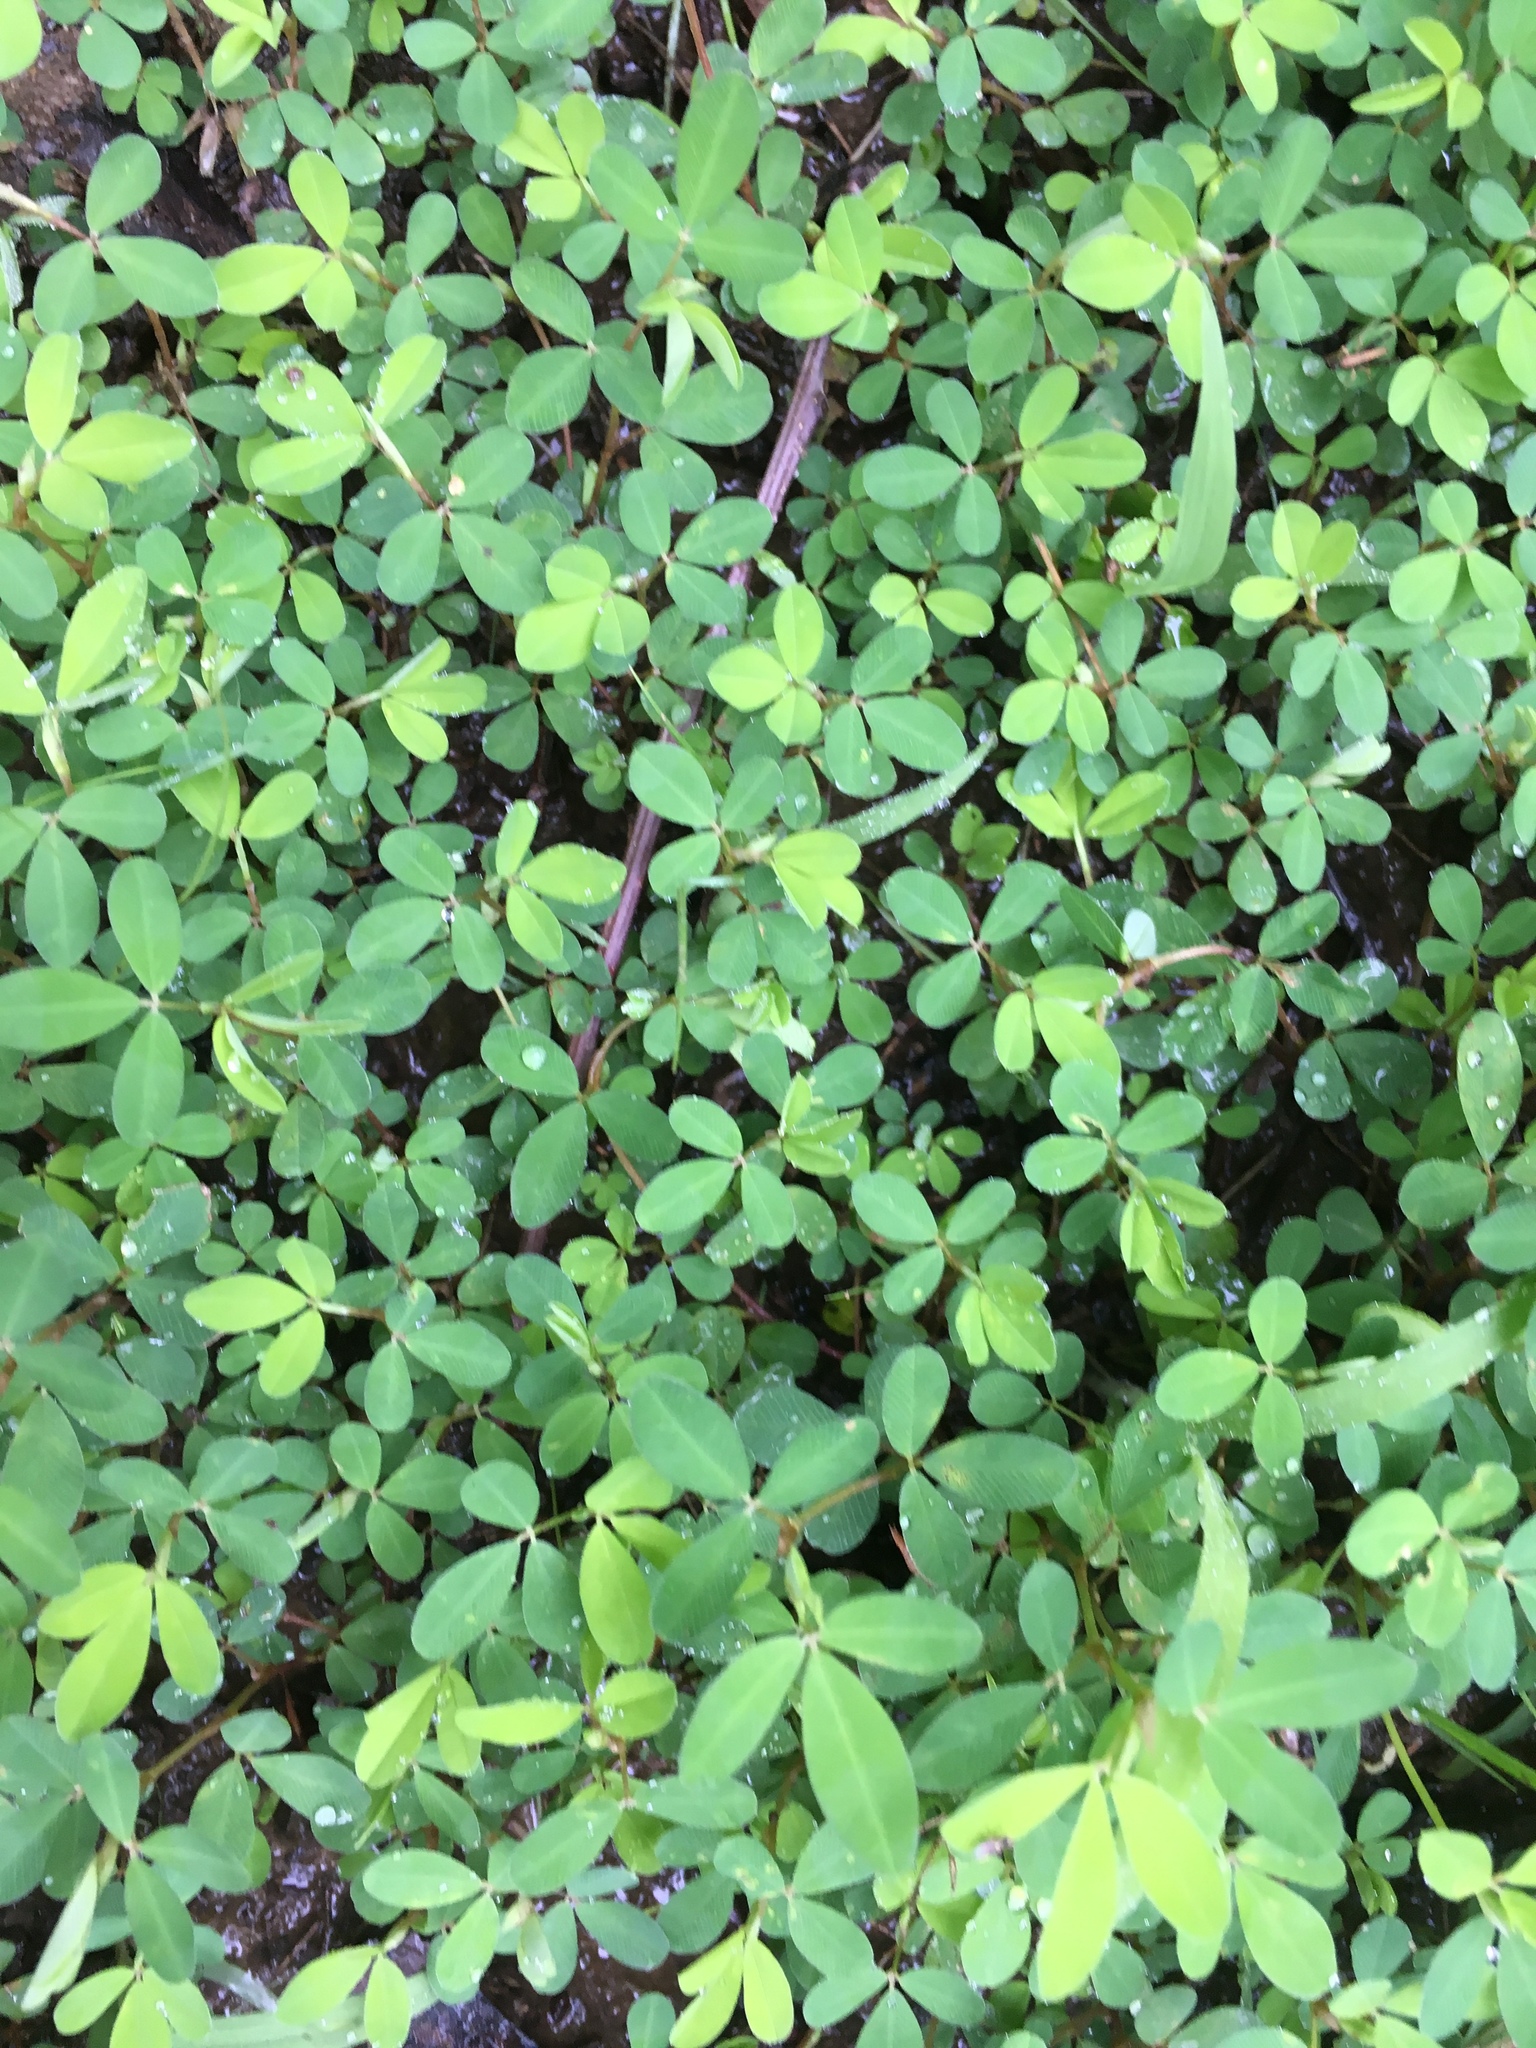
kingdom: Plantae
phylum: Tracheophyta
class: Magnoliopsida
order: Fabales
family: Fabaceae
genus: Kummerowia
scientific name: Kummerowia striata
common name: Japanese clover
